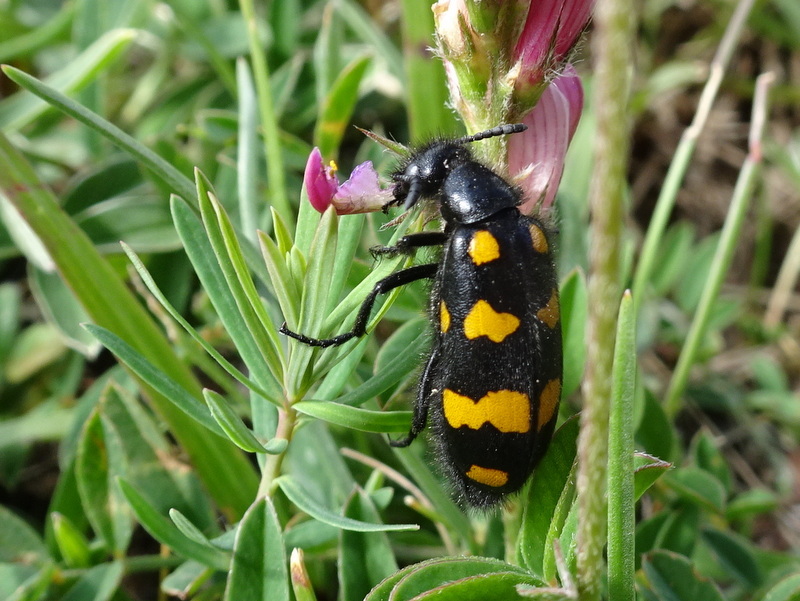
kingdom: Animalia
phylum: Arthropoda
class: Insecta
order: Coleoptera
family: Meloidae
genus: Hycleus
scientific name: Hycleus polymorphus
